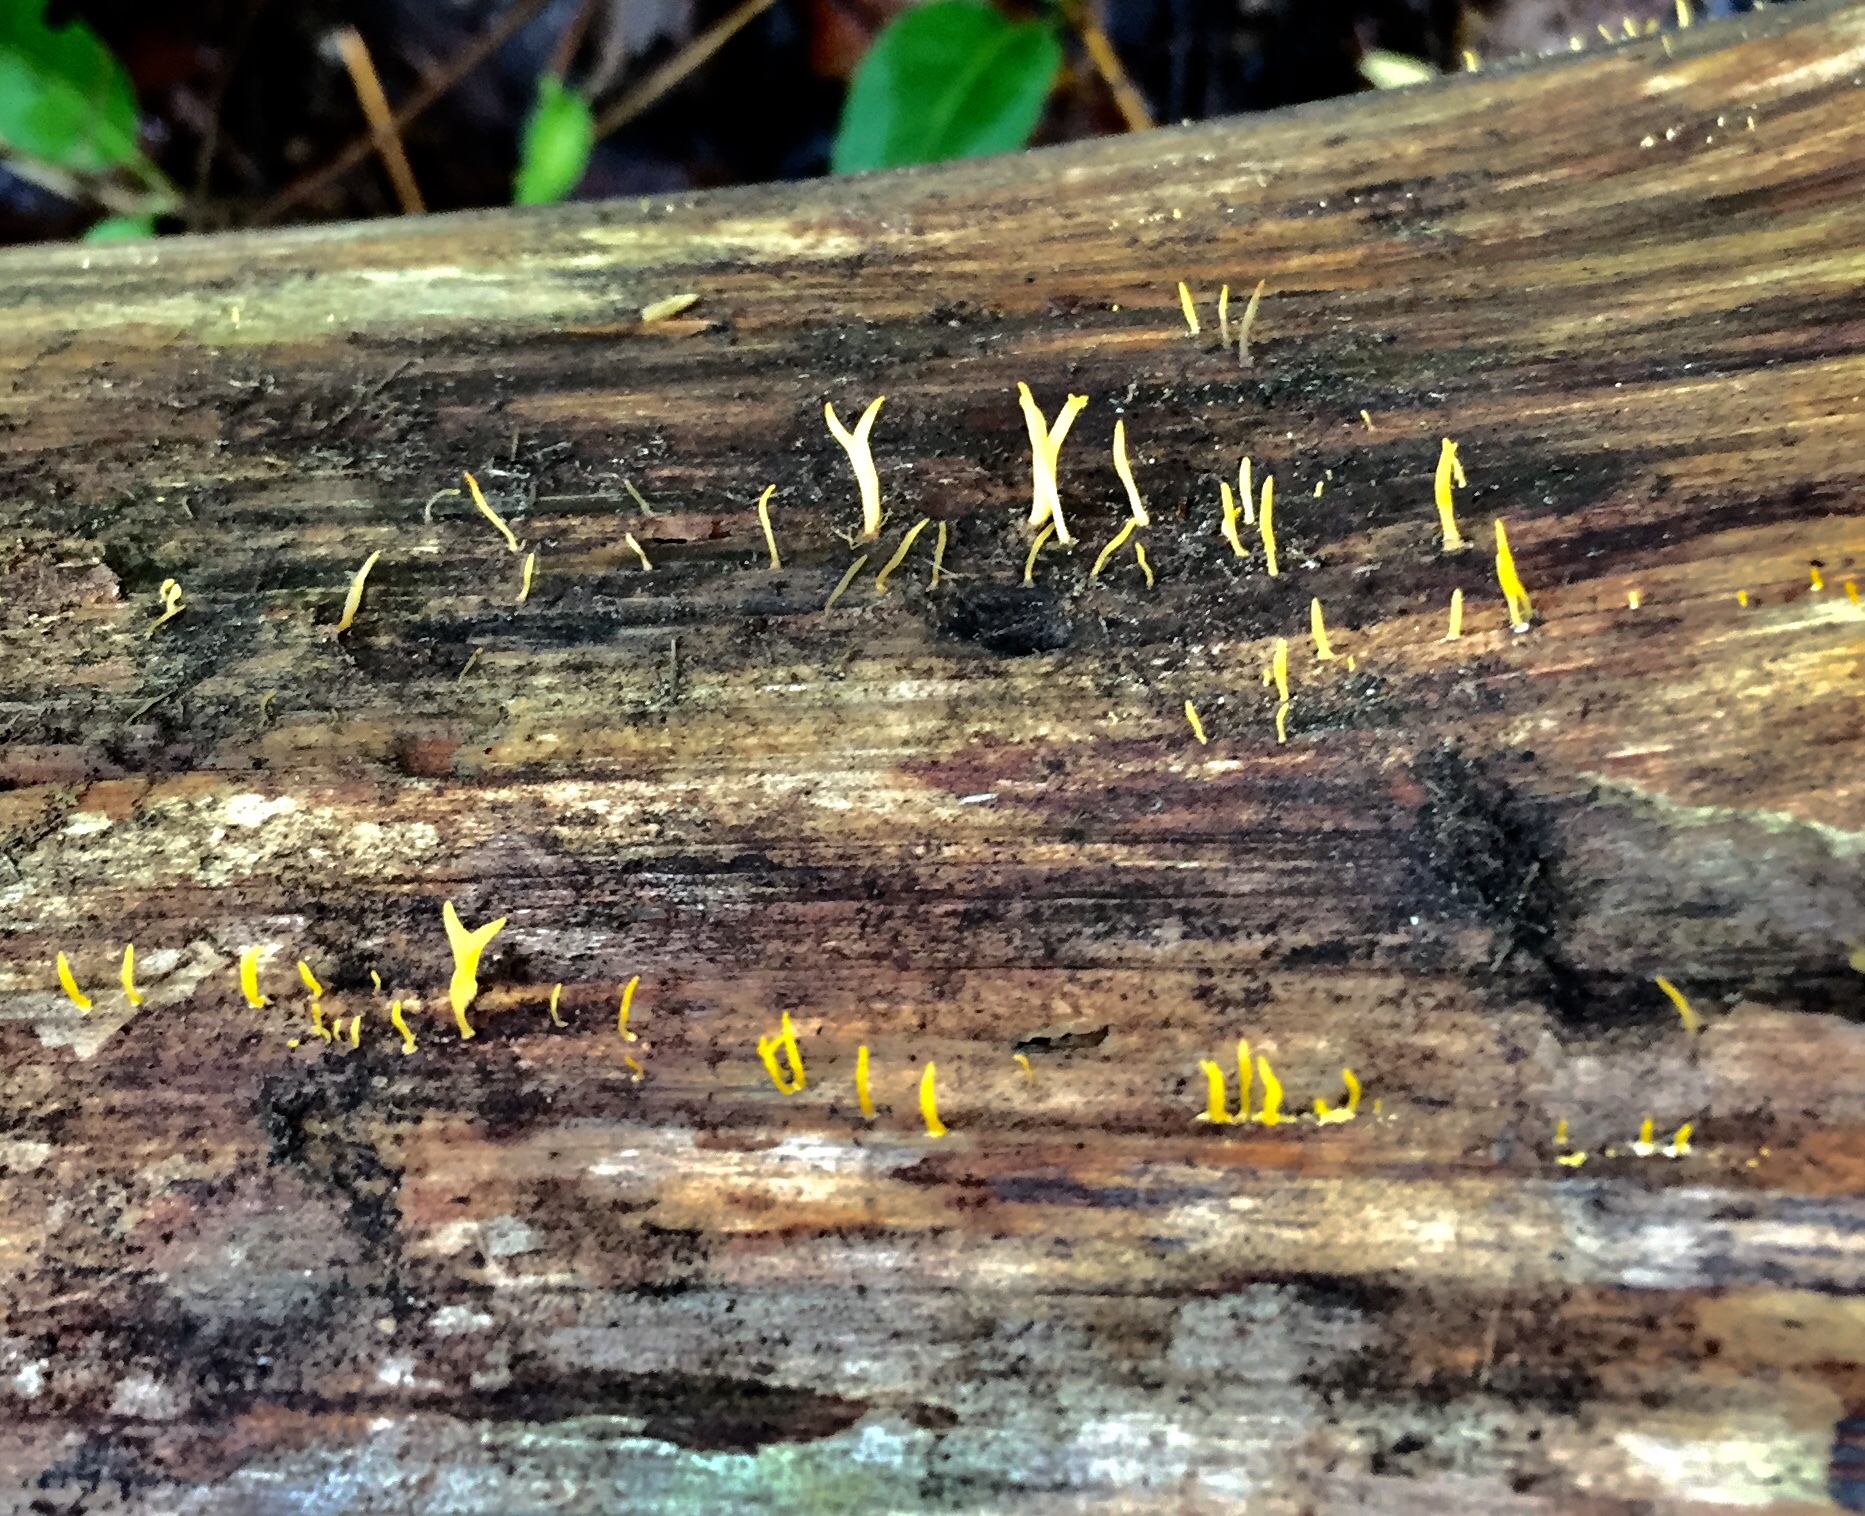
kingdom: Fungi
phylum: Basidiomycota
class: Dacrymycetes
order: Dacrymycetales
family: Dacrymycetaceae
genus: Calocera
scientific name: Calocera cornea
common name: Small stagshorn
